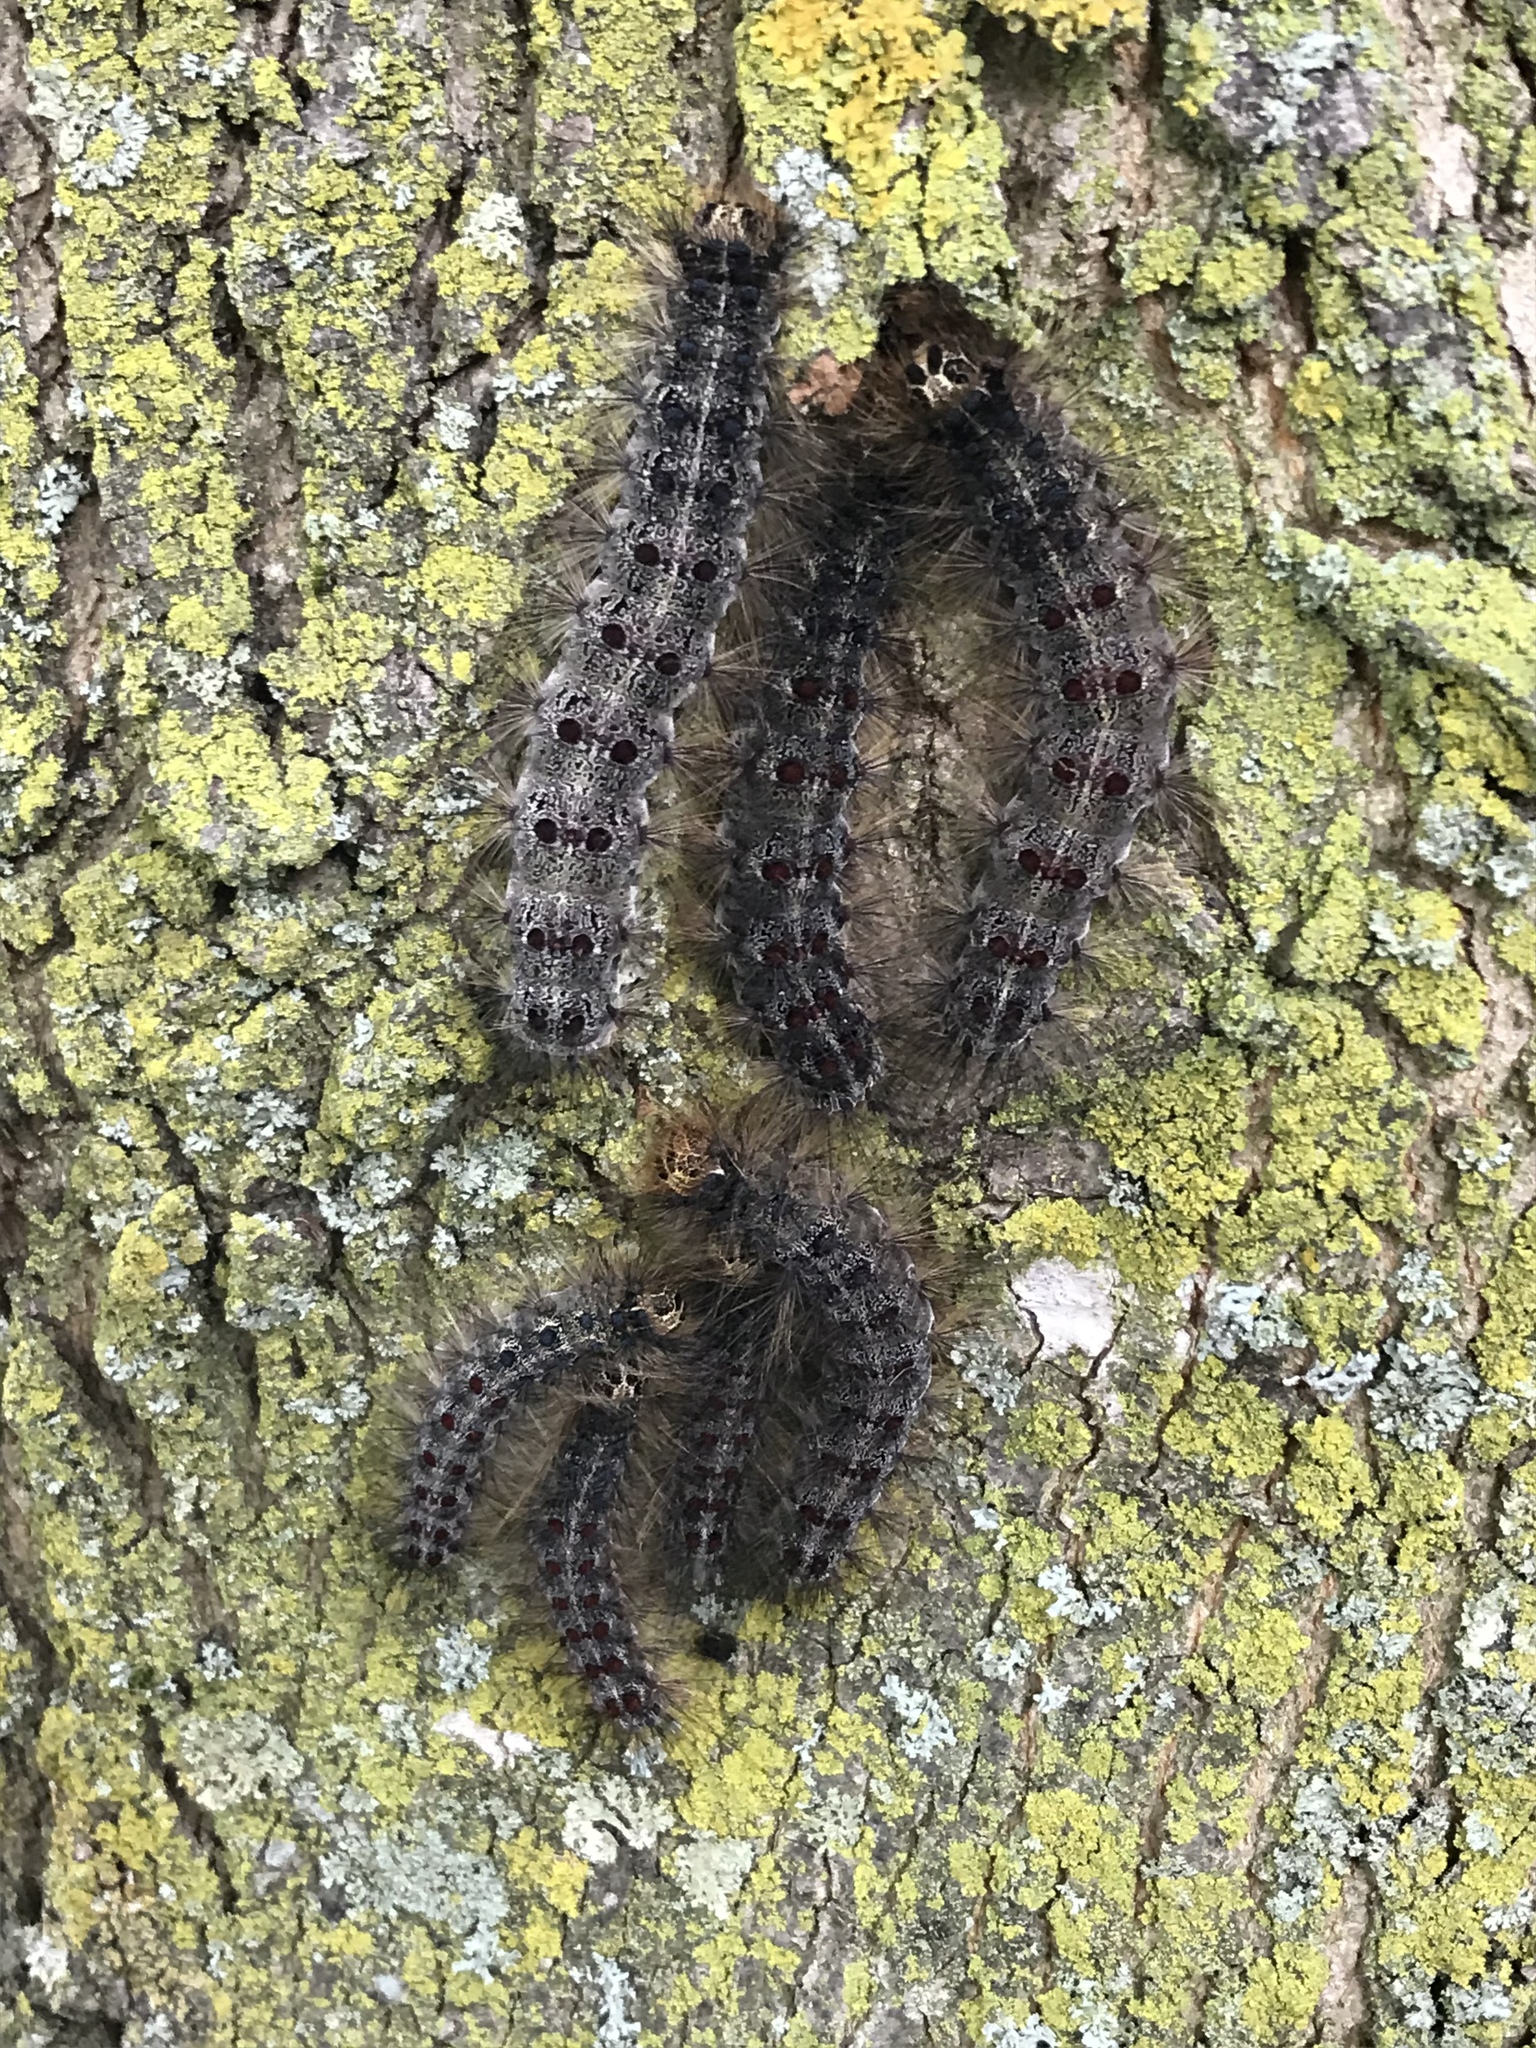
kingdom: Animalia
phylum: Arthropoda
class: Insecta
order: Lepidoptera
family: Erebidae
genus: Lymantria
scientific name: Lymantria dispar
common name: Gypsy moth
